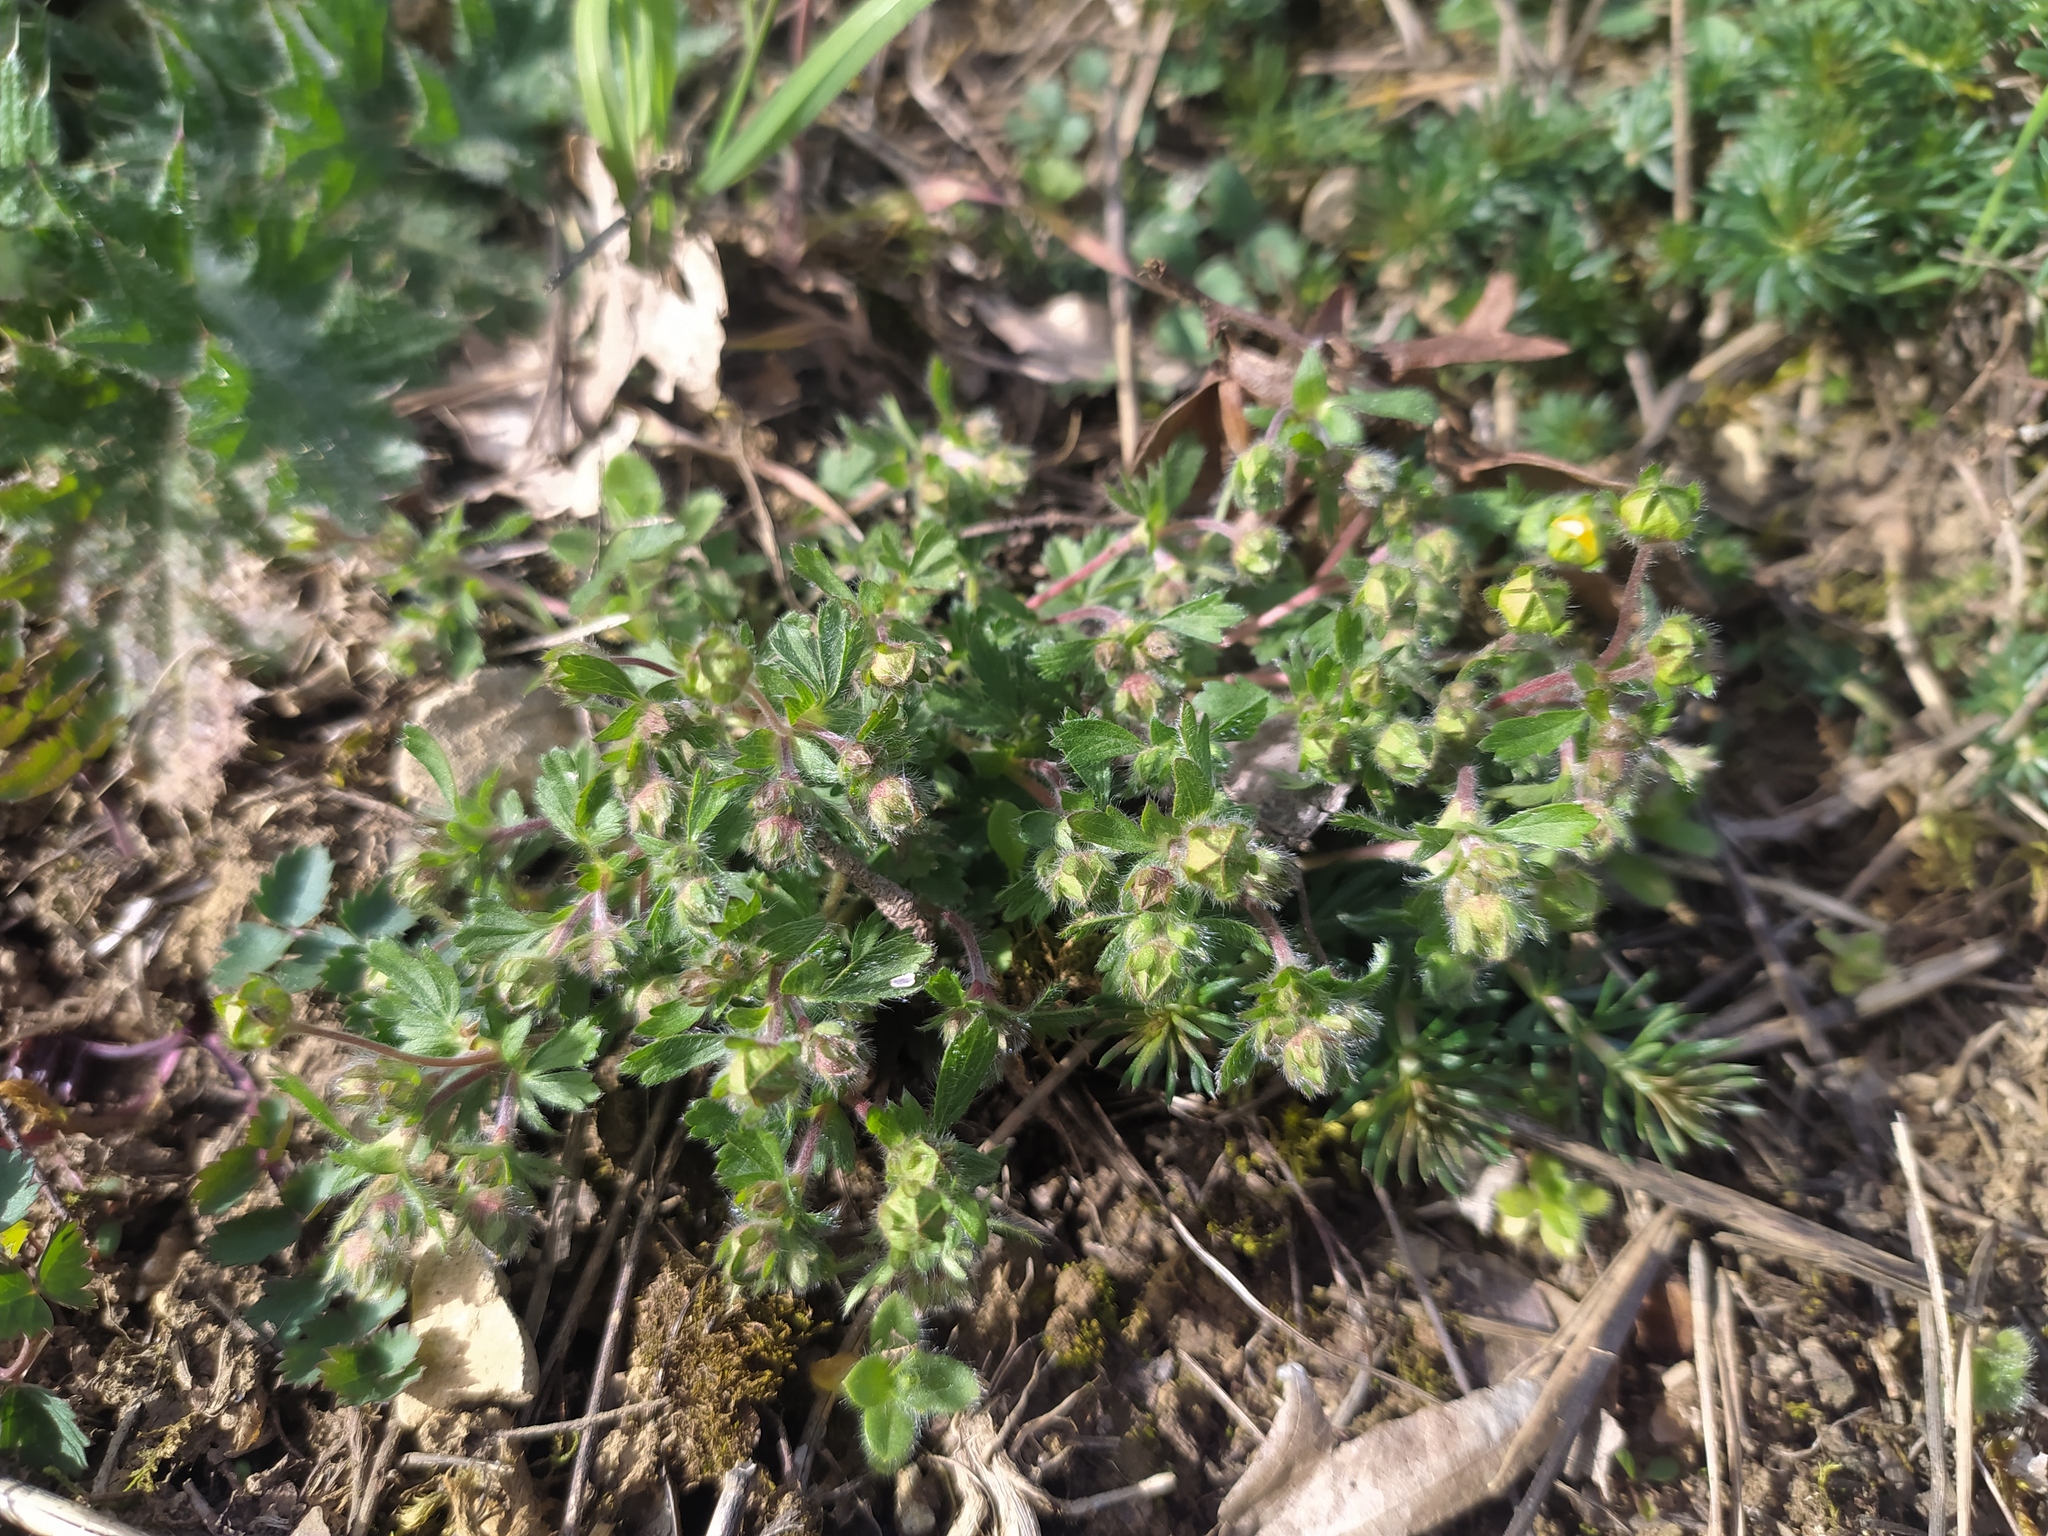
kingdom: Plantae
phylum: Tracheophyta
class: Magnoliopsida
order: Rosales
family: Rosaceae
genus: Potentilla
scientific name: Potentilla heptaphylla
